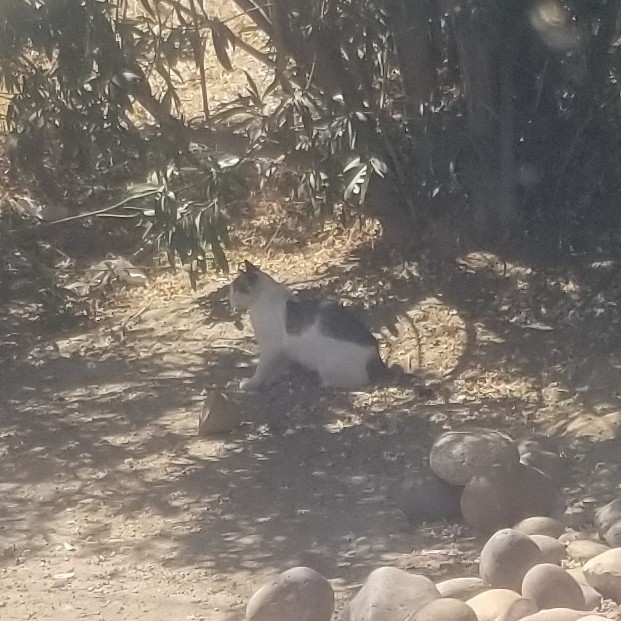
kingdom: Animalia
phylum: Chordata
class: Mammalia
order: Carnivora
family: Felidae
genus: Felis
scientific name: Felis catus
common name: Domestic cat
